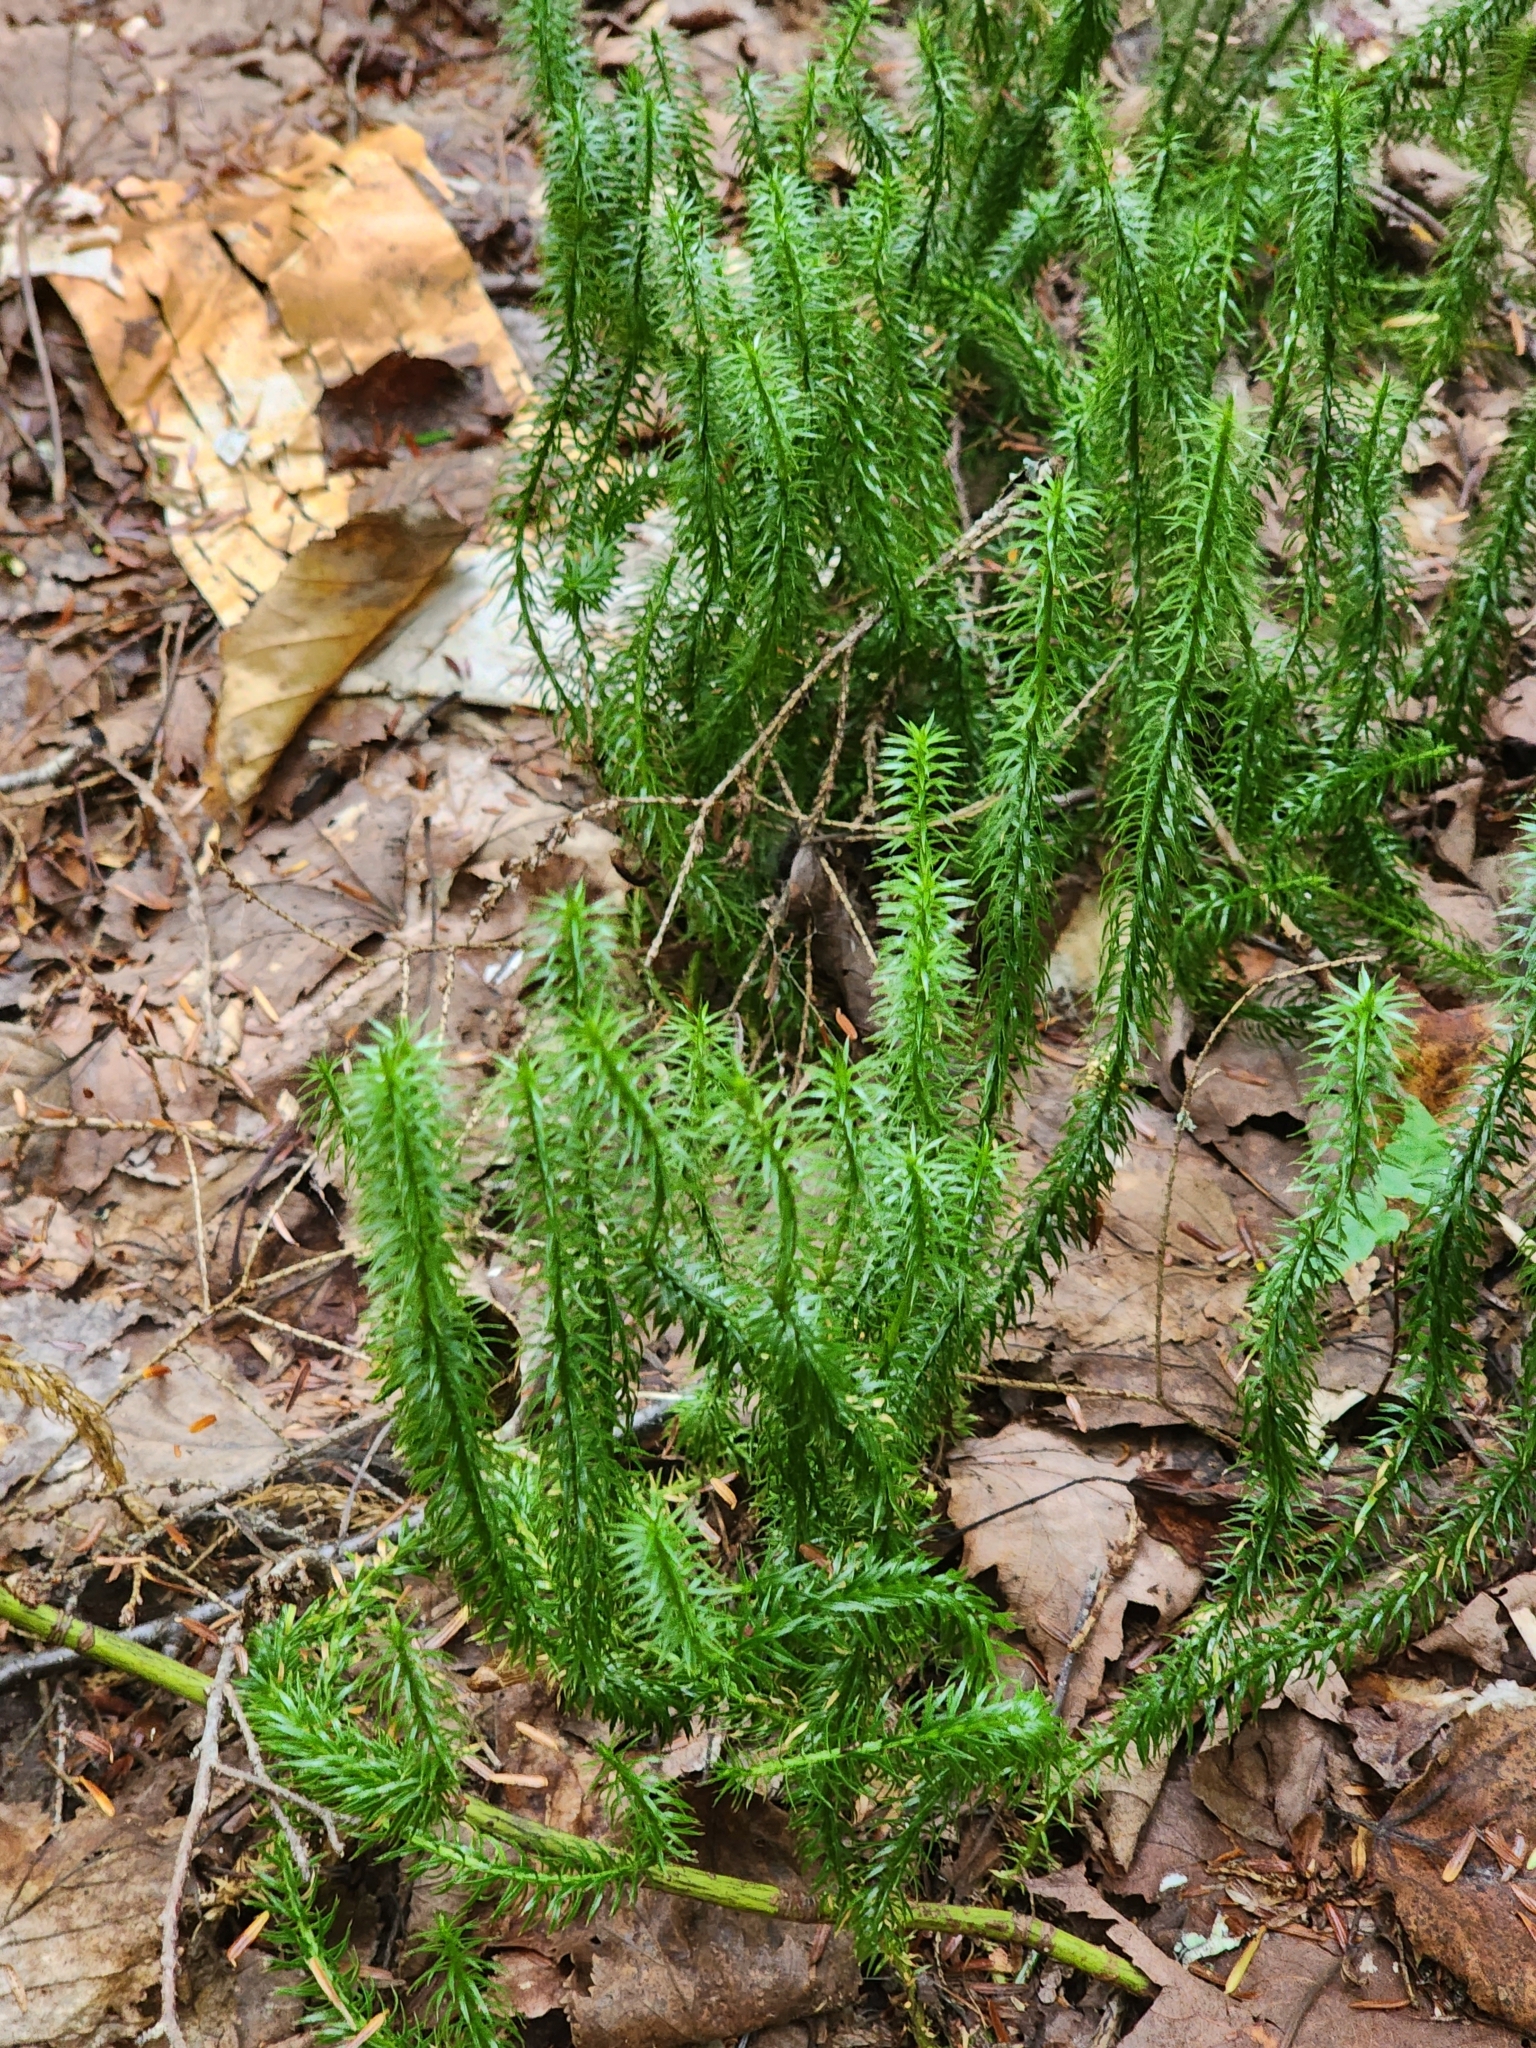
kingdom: Plantae
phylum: Tracheophyta
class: Lycopodiopsida
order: Lycopodiales
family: Lycopodiaceae
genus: Spinulum
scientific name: Spinulum annotinum
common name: Interrupted club-moss
